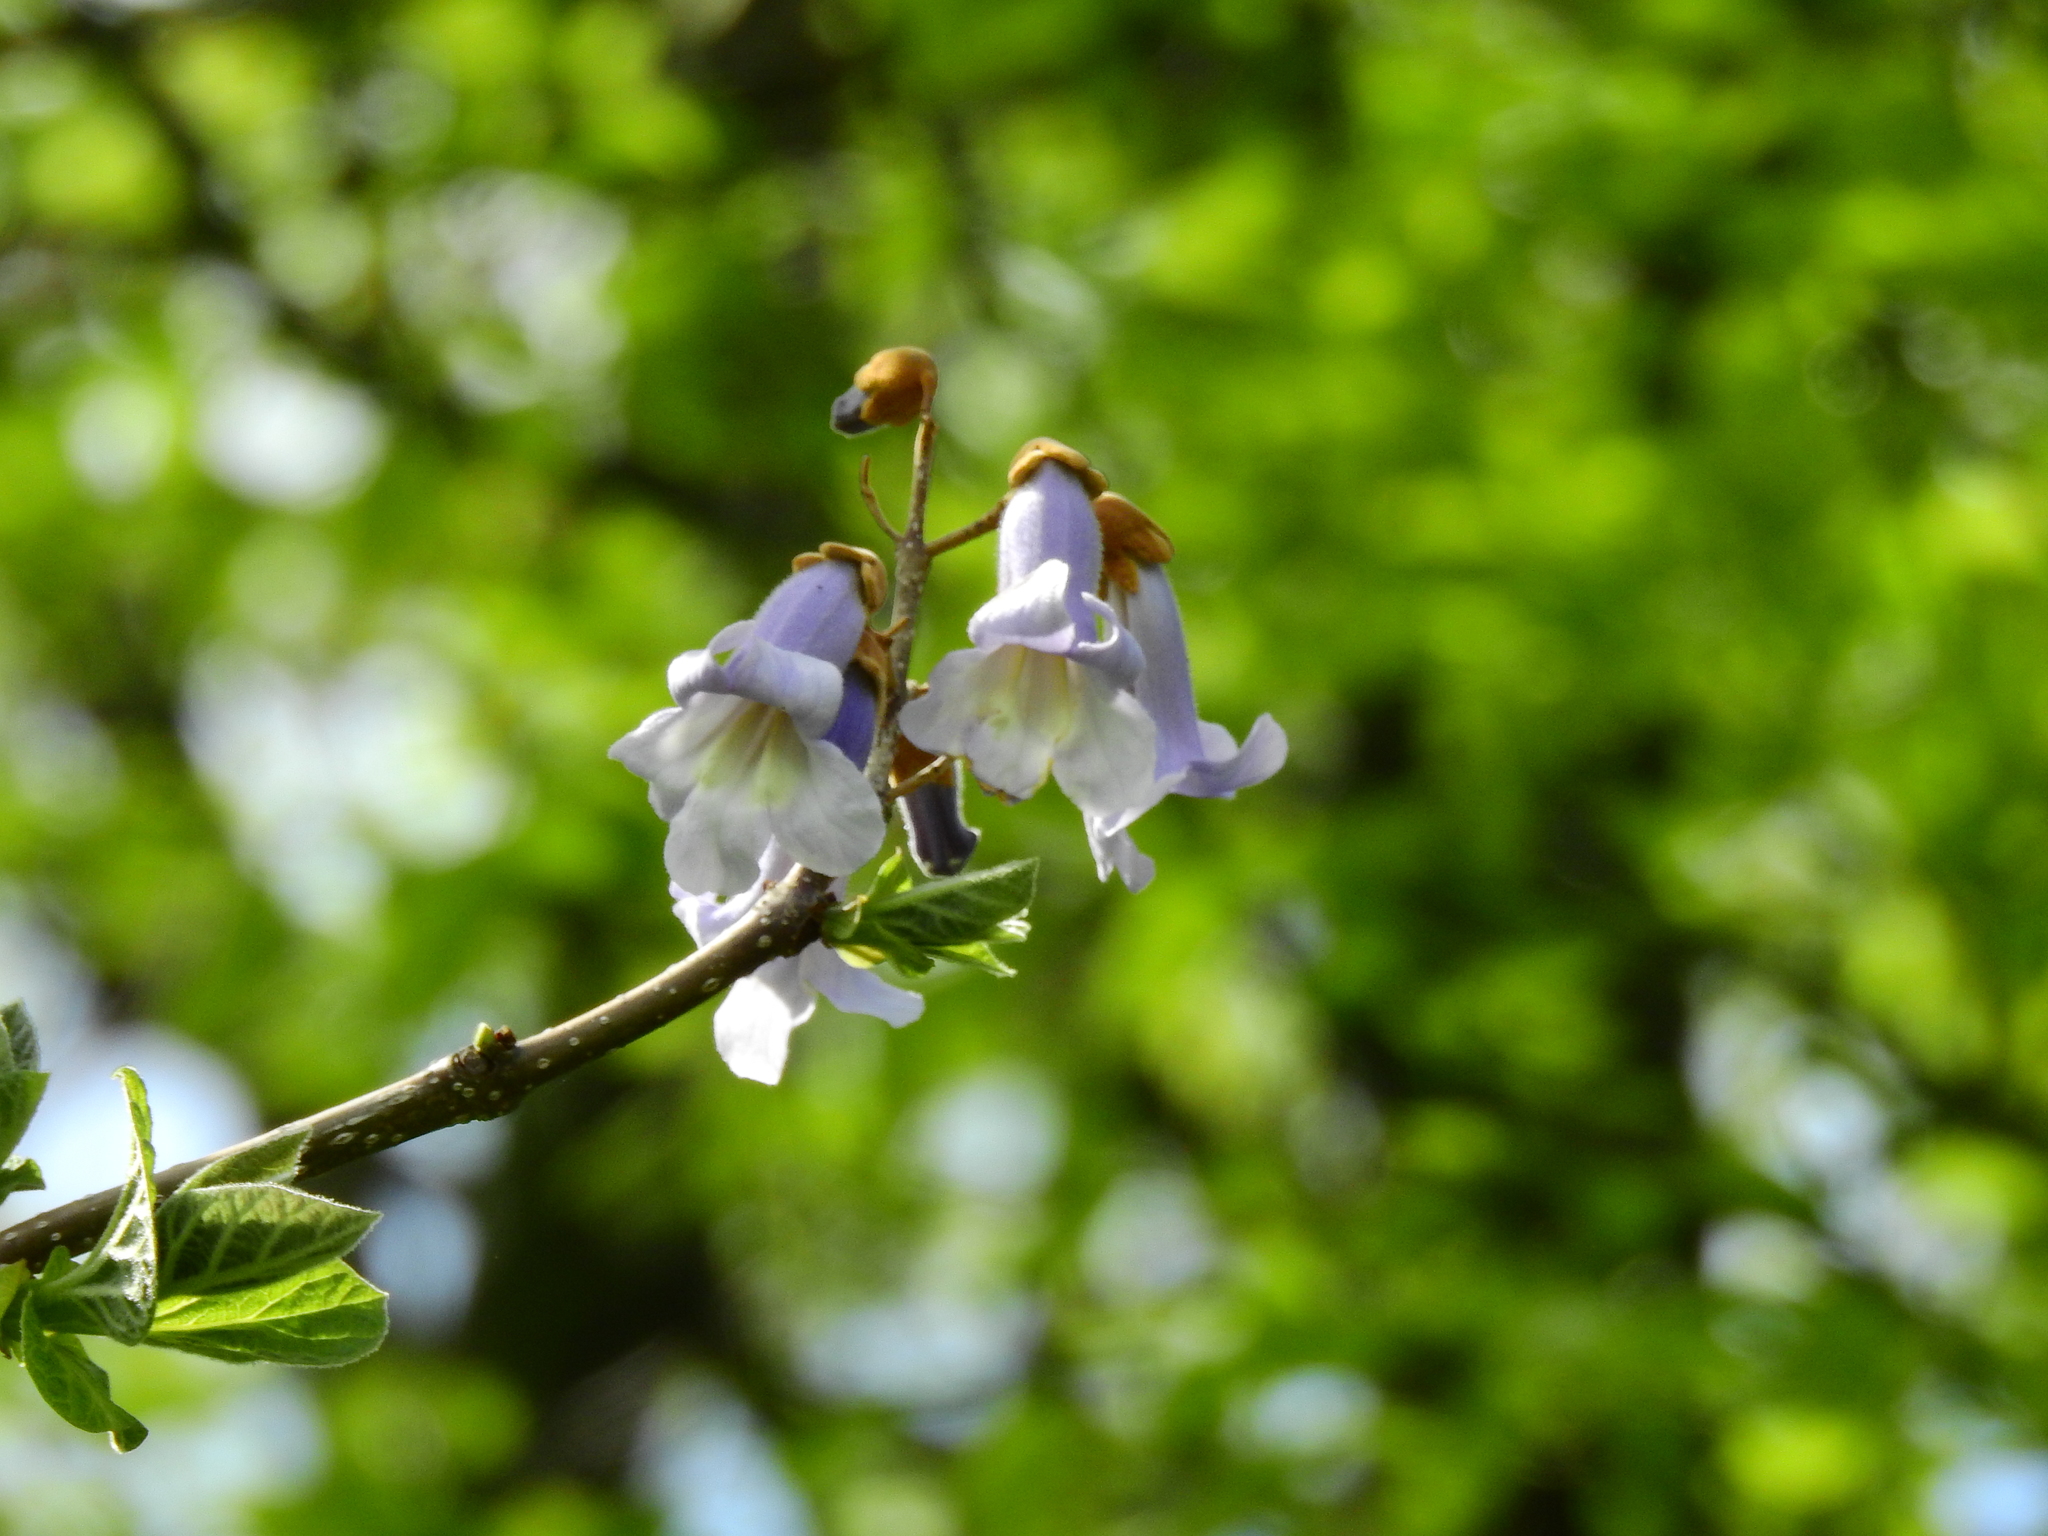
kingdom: Plantae
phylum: Tracheophyta
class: Magnoliopsida
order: Lamiales
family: Paulowniaceae
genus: Paulownia
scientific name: Paulownia tomentosa
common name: Foxglove-tree
